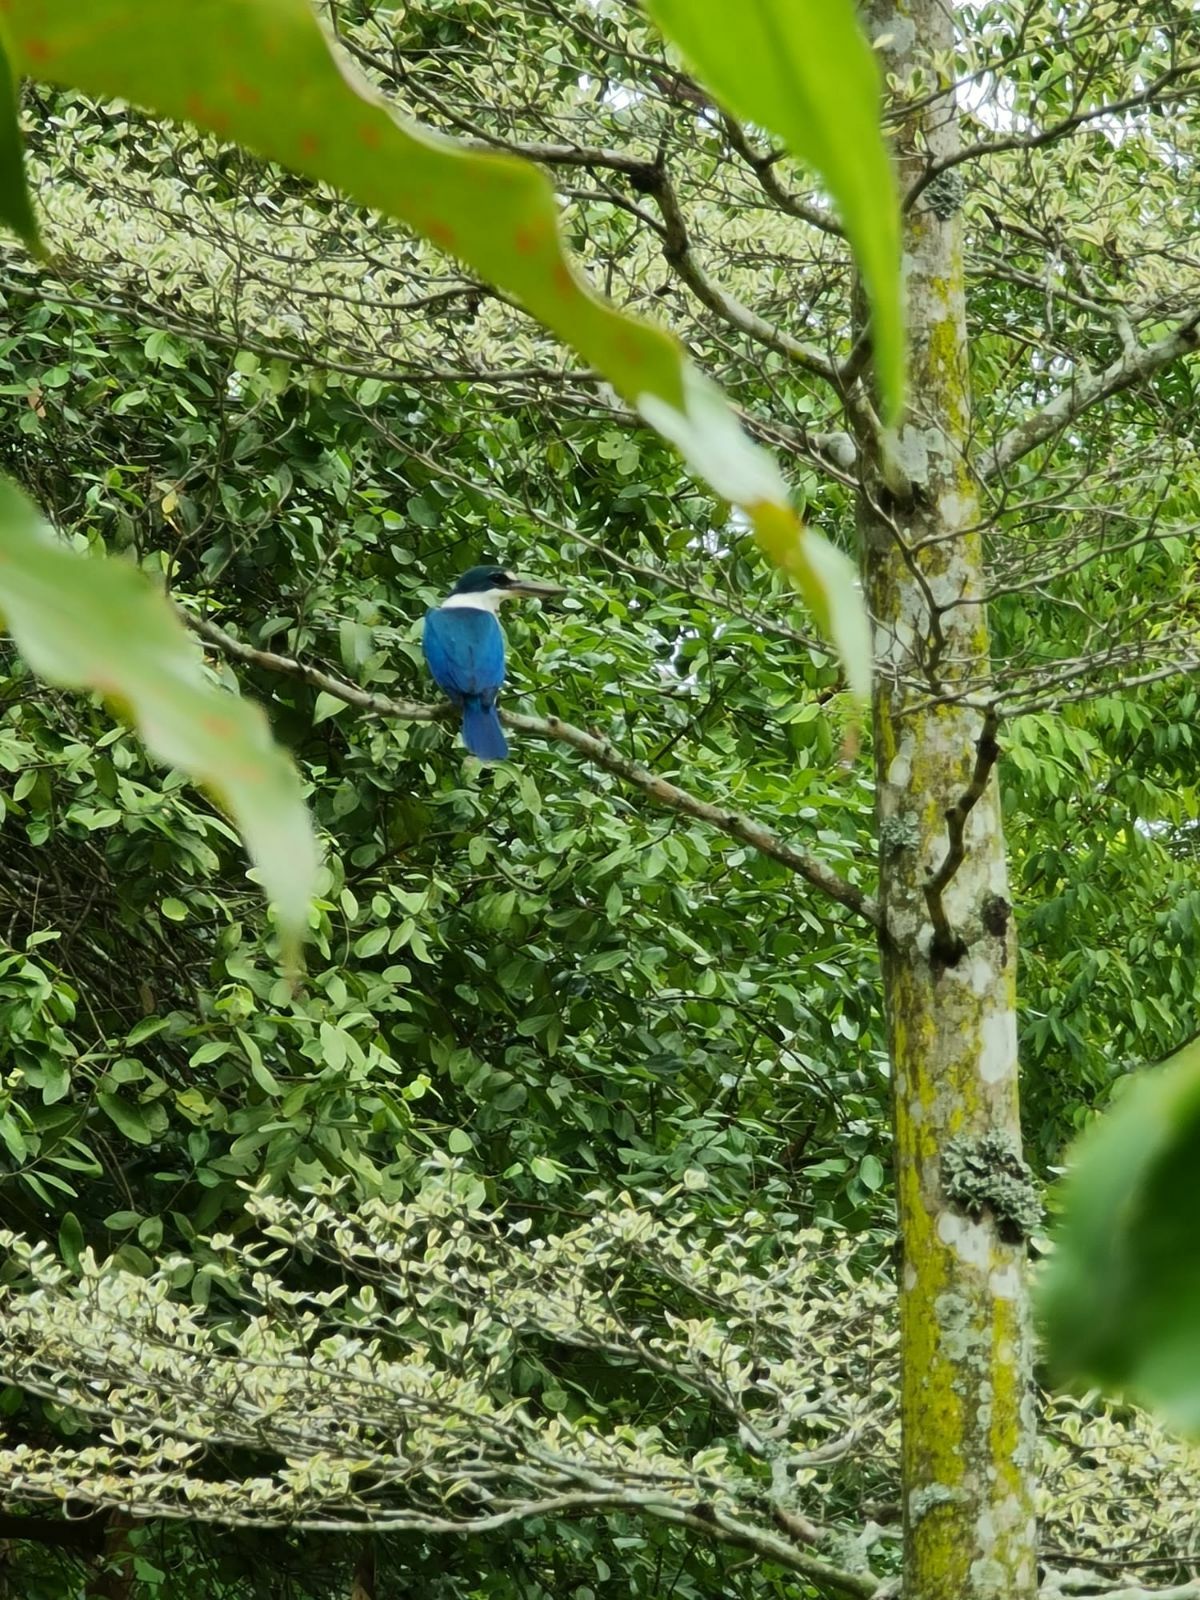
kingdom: Animalia
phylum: Chordata
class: Aves
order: Coraciiformes
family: Alcedinidae
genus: Todiramphus
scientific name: Todiramphus chloris
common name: Collared kingfisher
